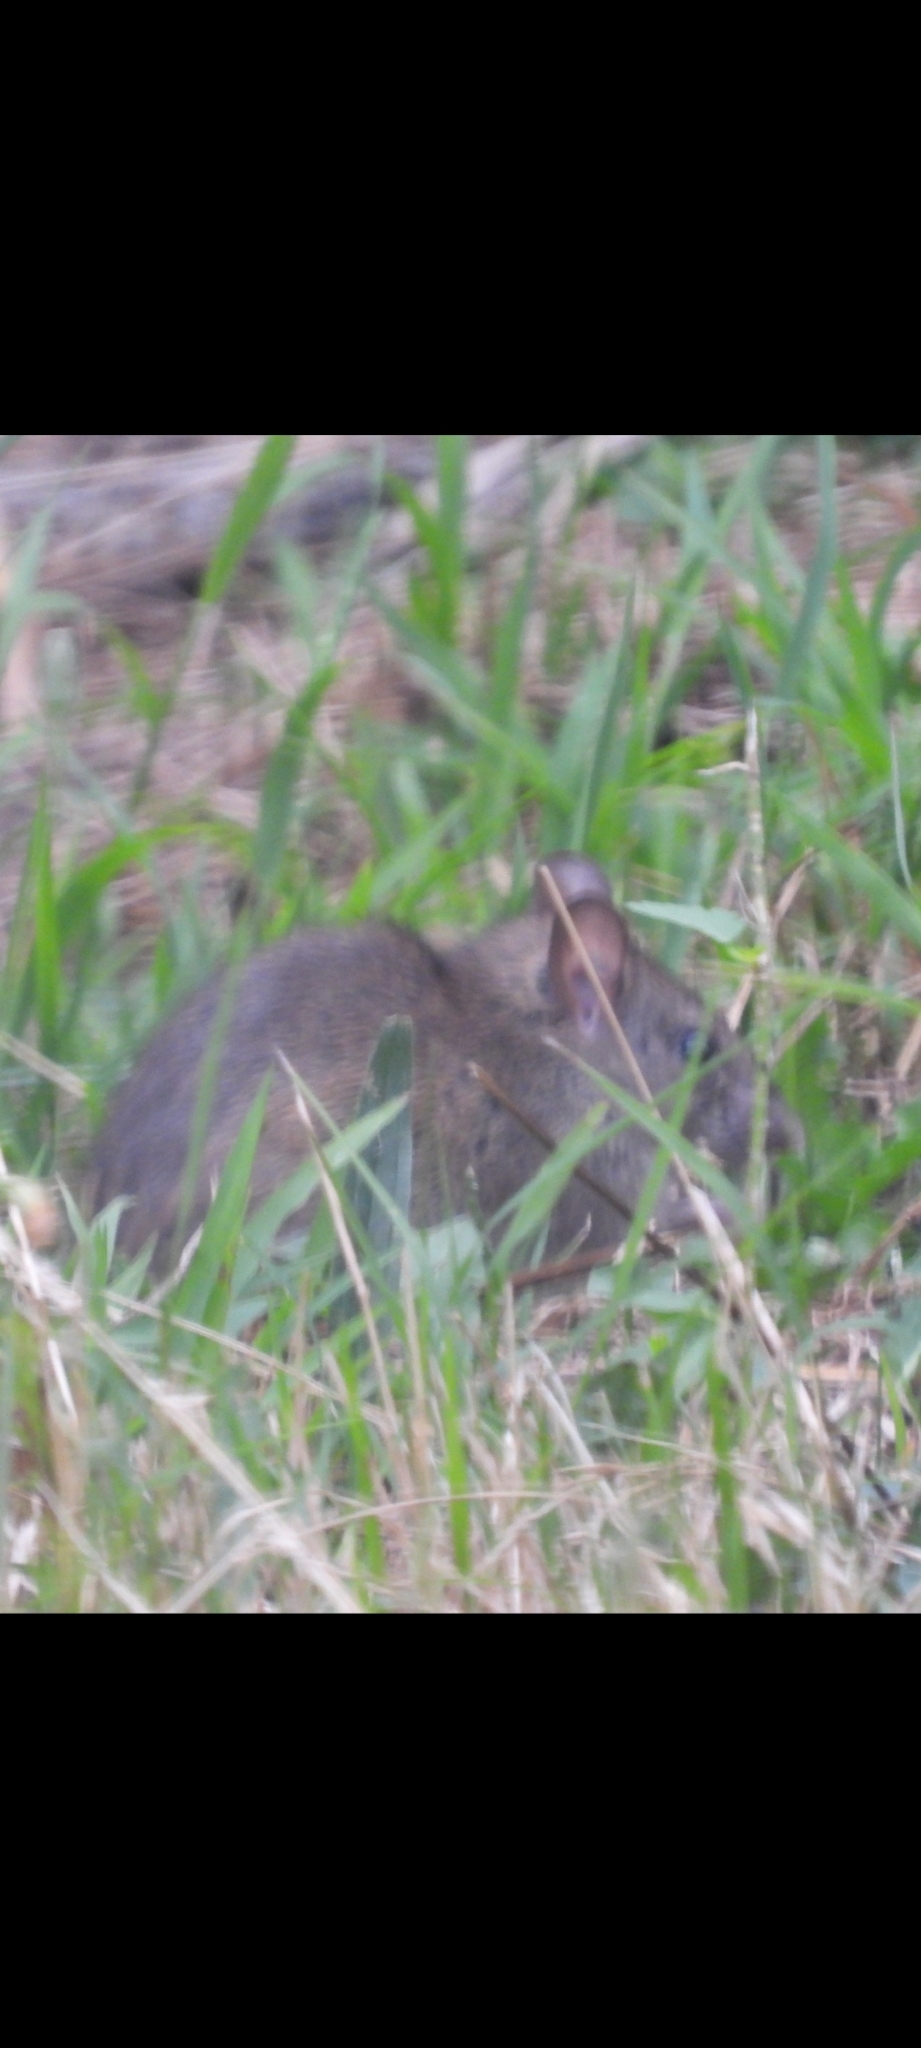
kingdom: Animalia
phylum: Chordata
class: Mammalia
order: Rodentia
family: Muridae
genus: Rattus
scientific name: Rattus norvegicus
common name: Brown rat
